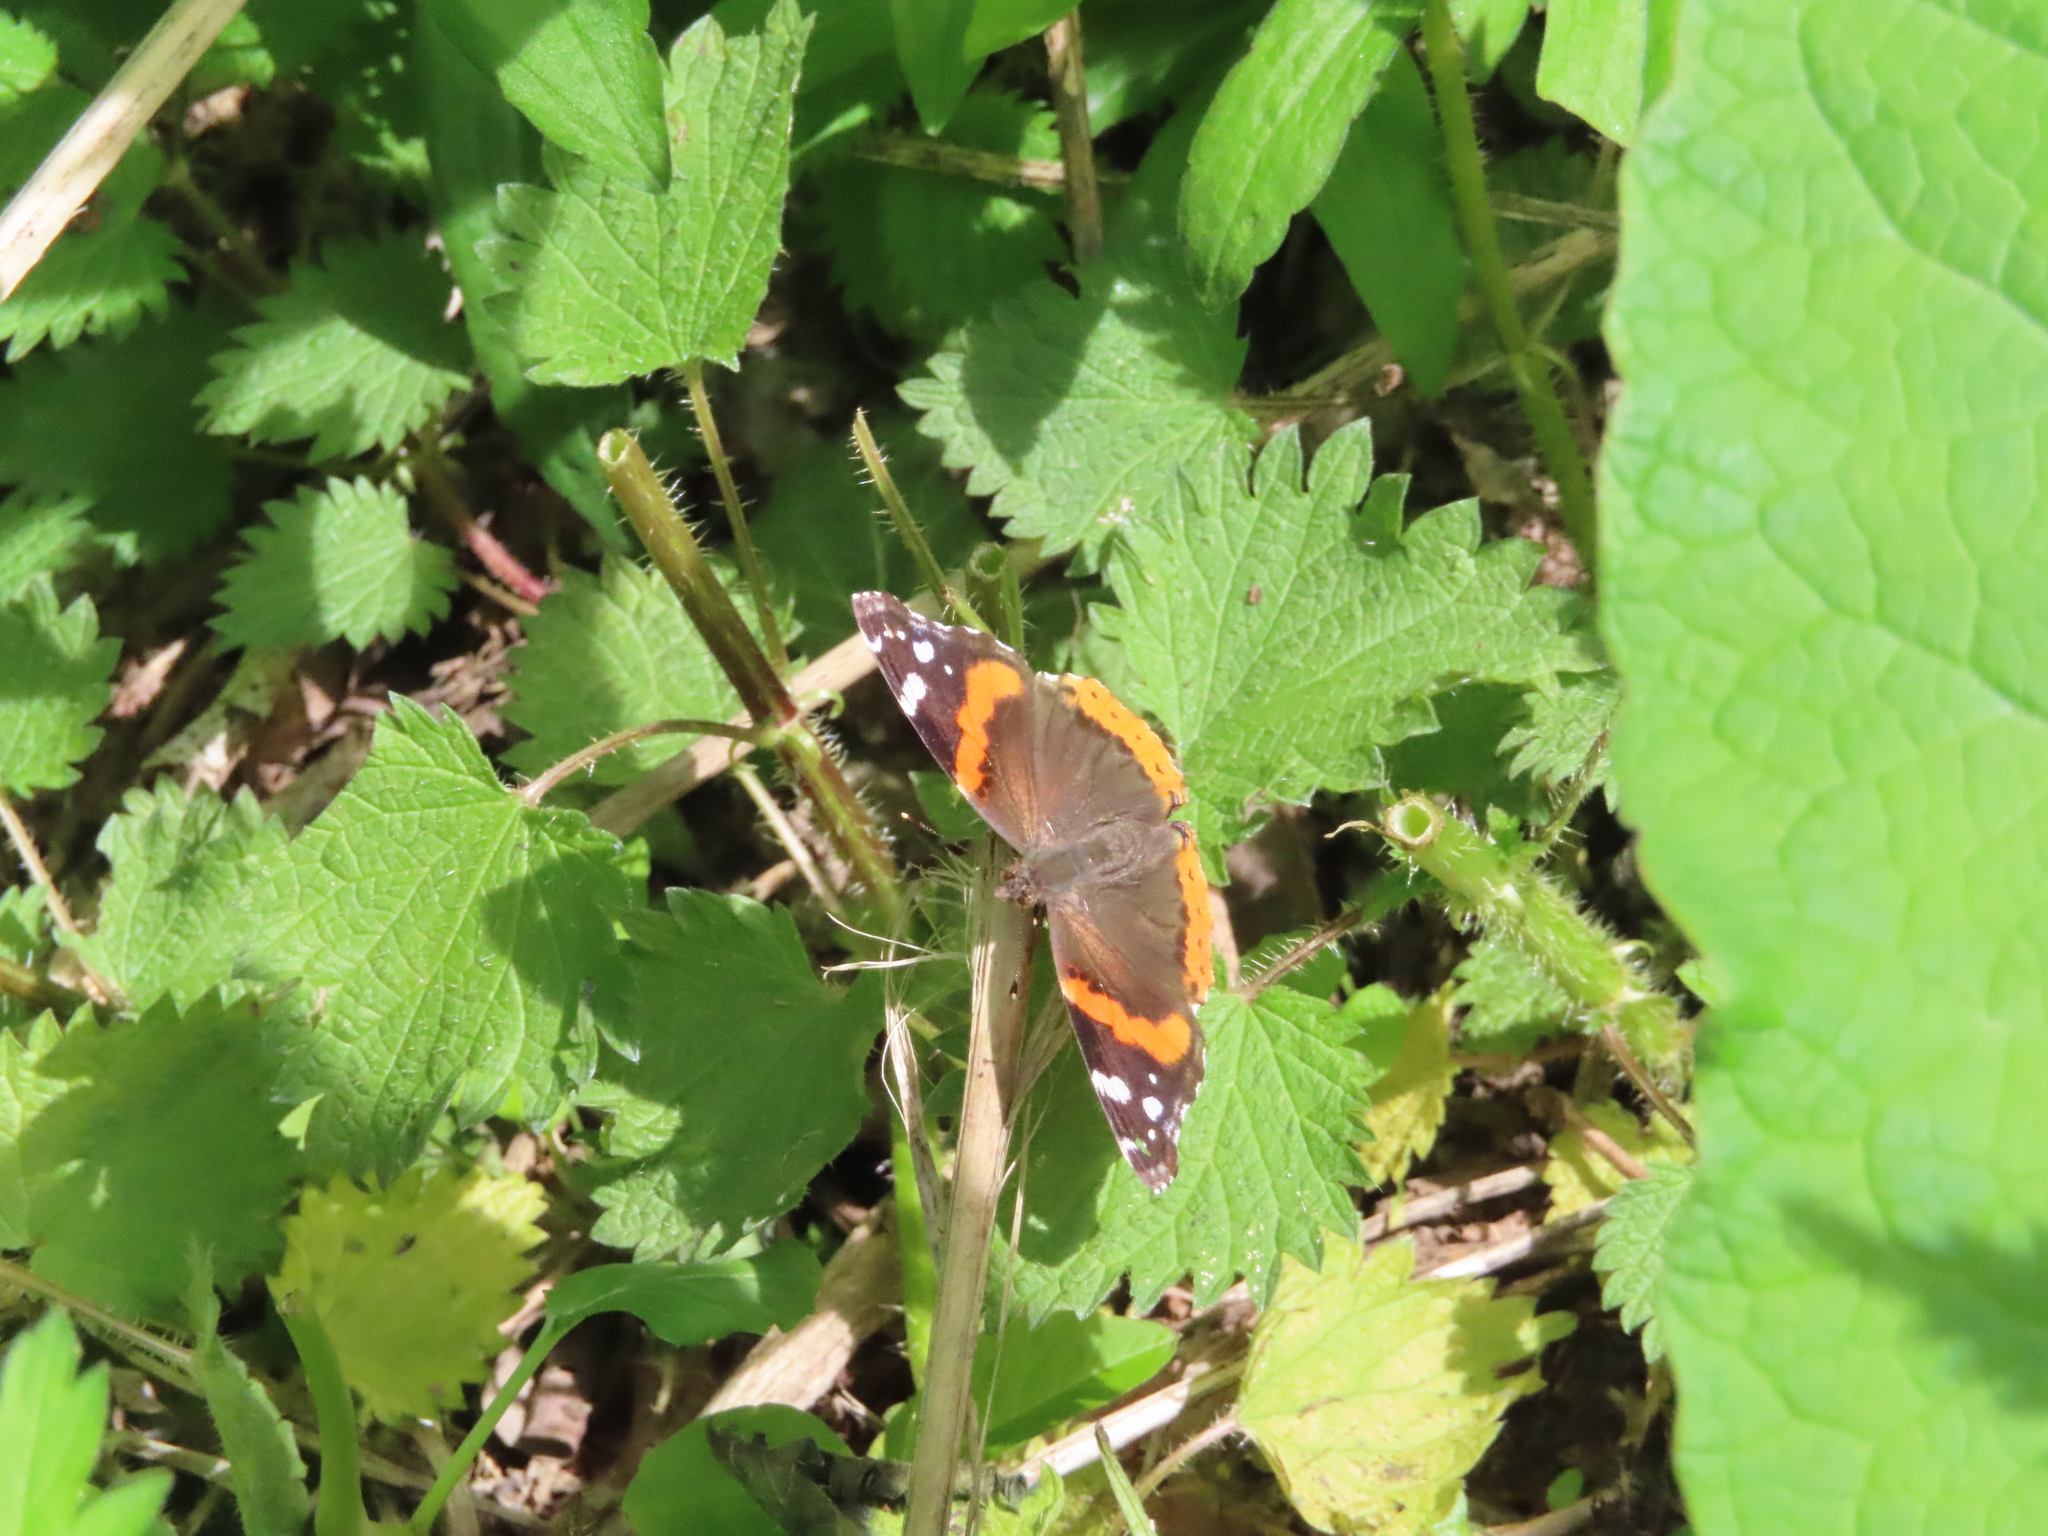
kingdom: Animalia
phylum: Arthropoda
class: Insecta
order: Lepidoptera
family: Nymphalidae
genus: Vanessa
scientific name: Vanessa atalanta
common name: Red admiral
